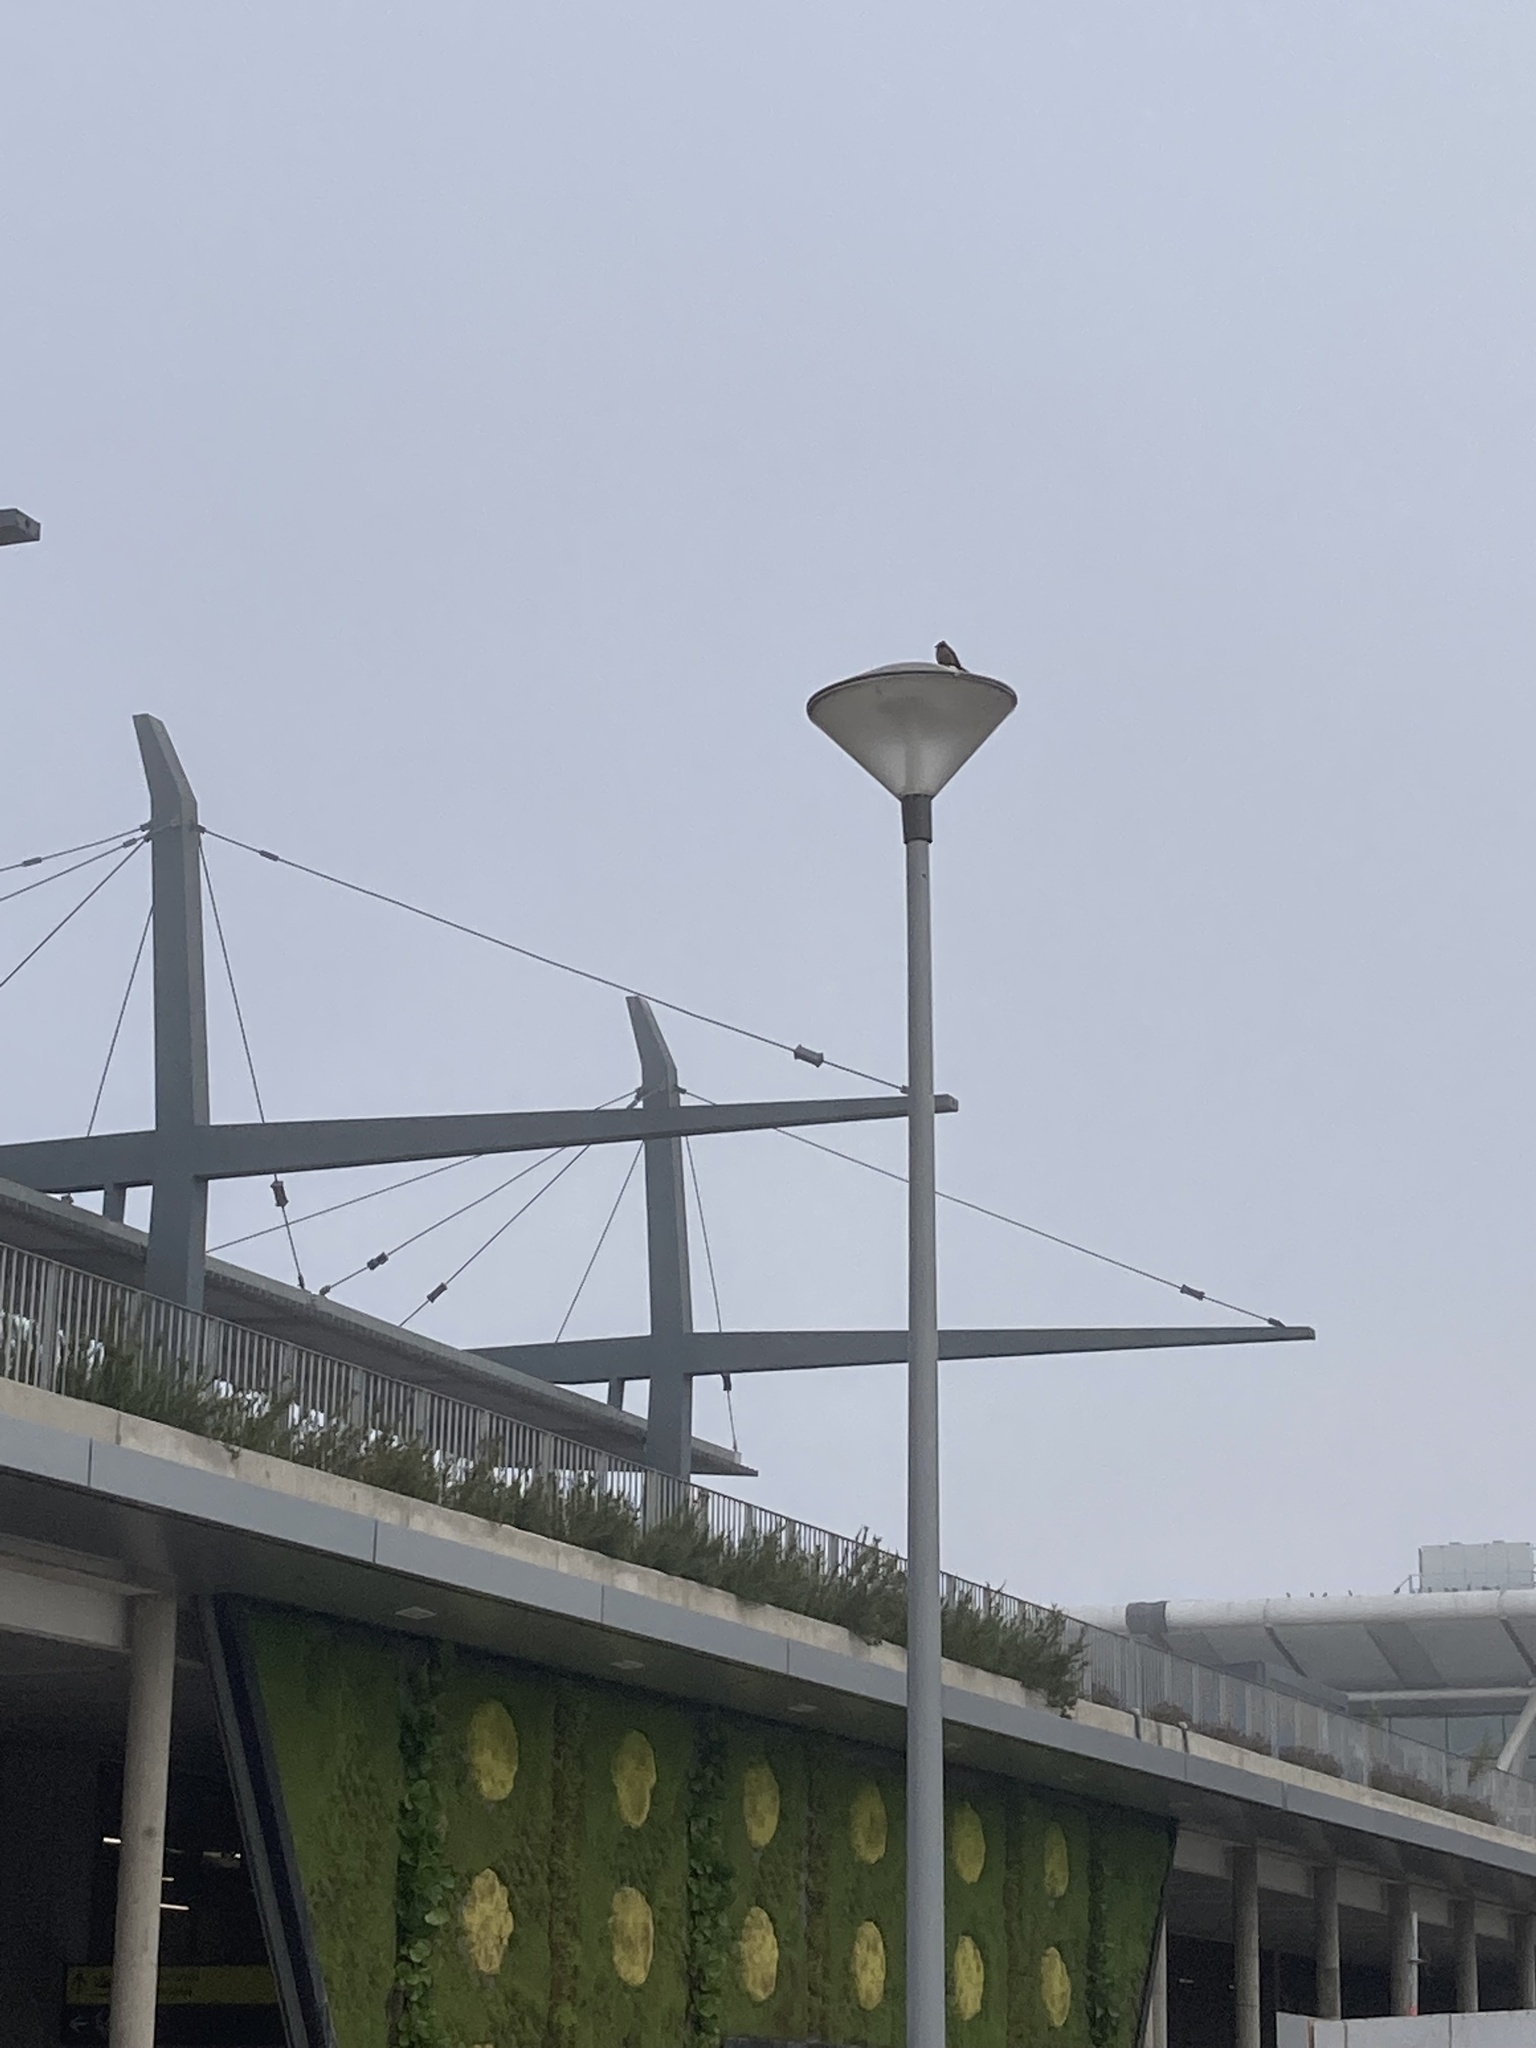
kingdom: Animalia
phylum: Chordata
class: Aves
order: Passeriformes
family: Passerellidae
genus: Zonotrichia
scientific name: Zonotrichia capensis
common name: Rufous-collared sparrow
